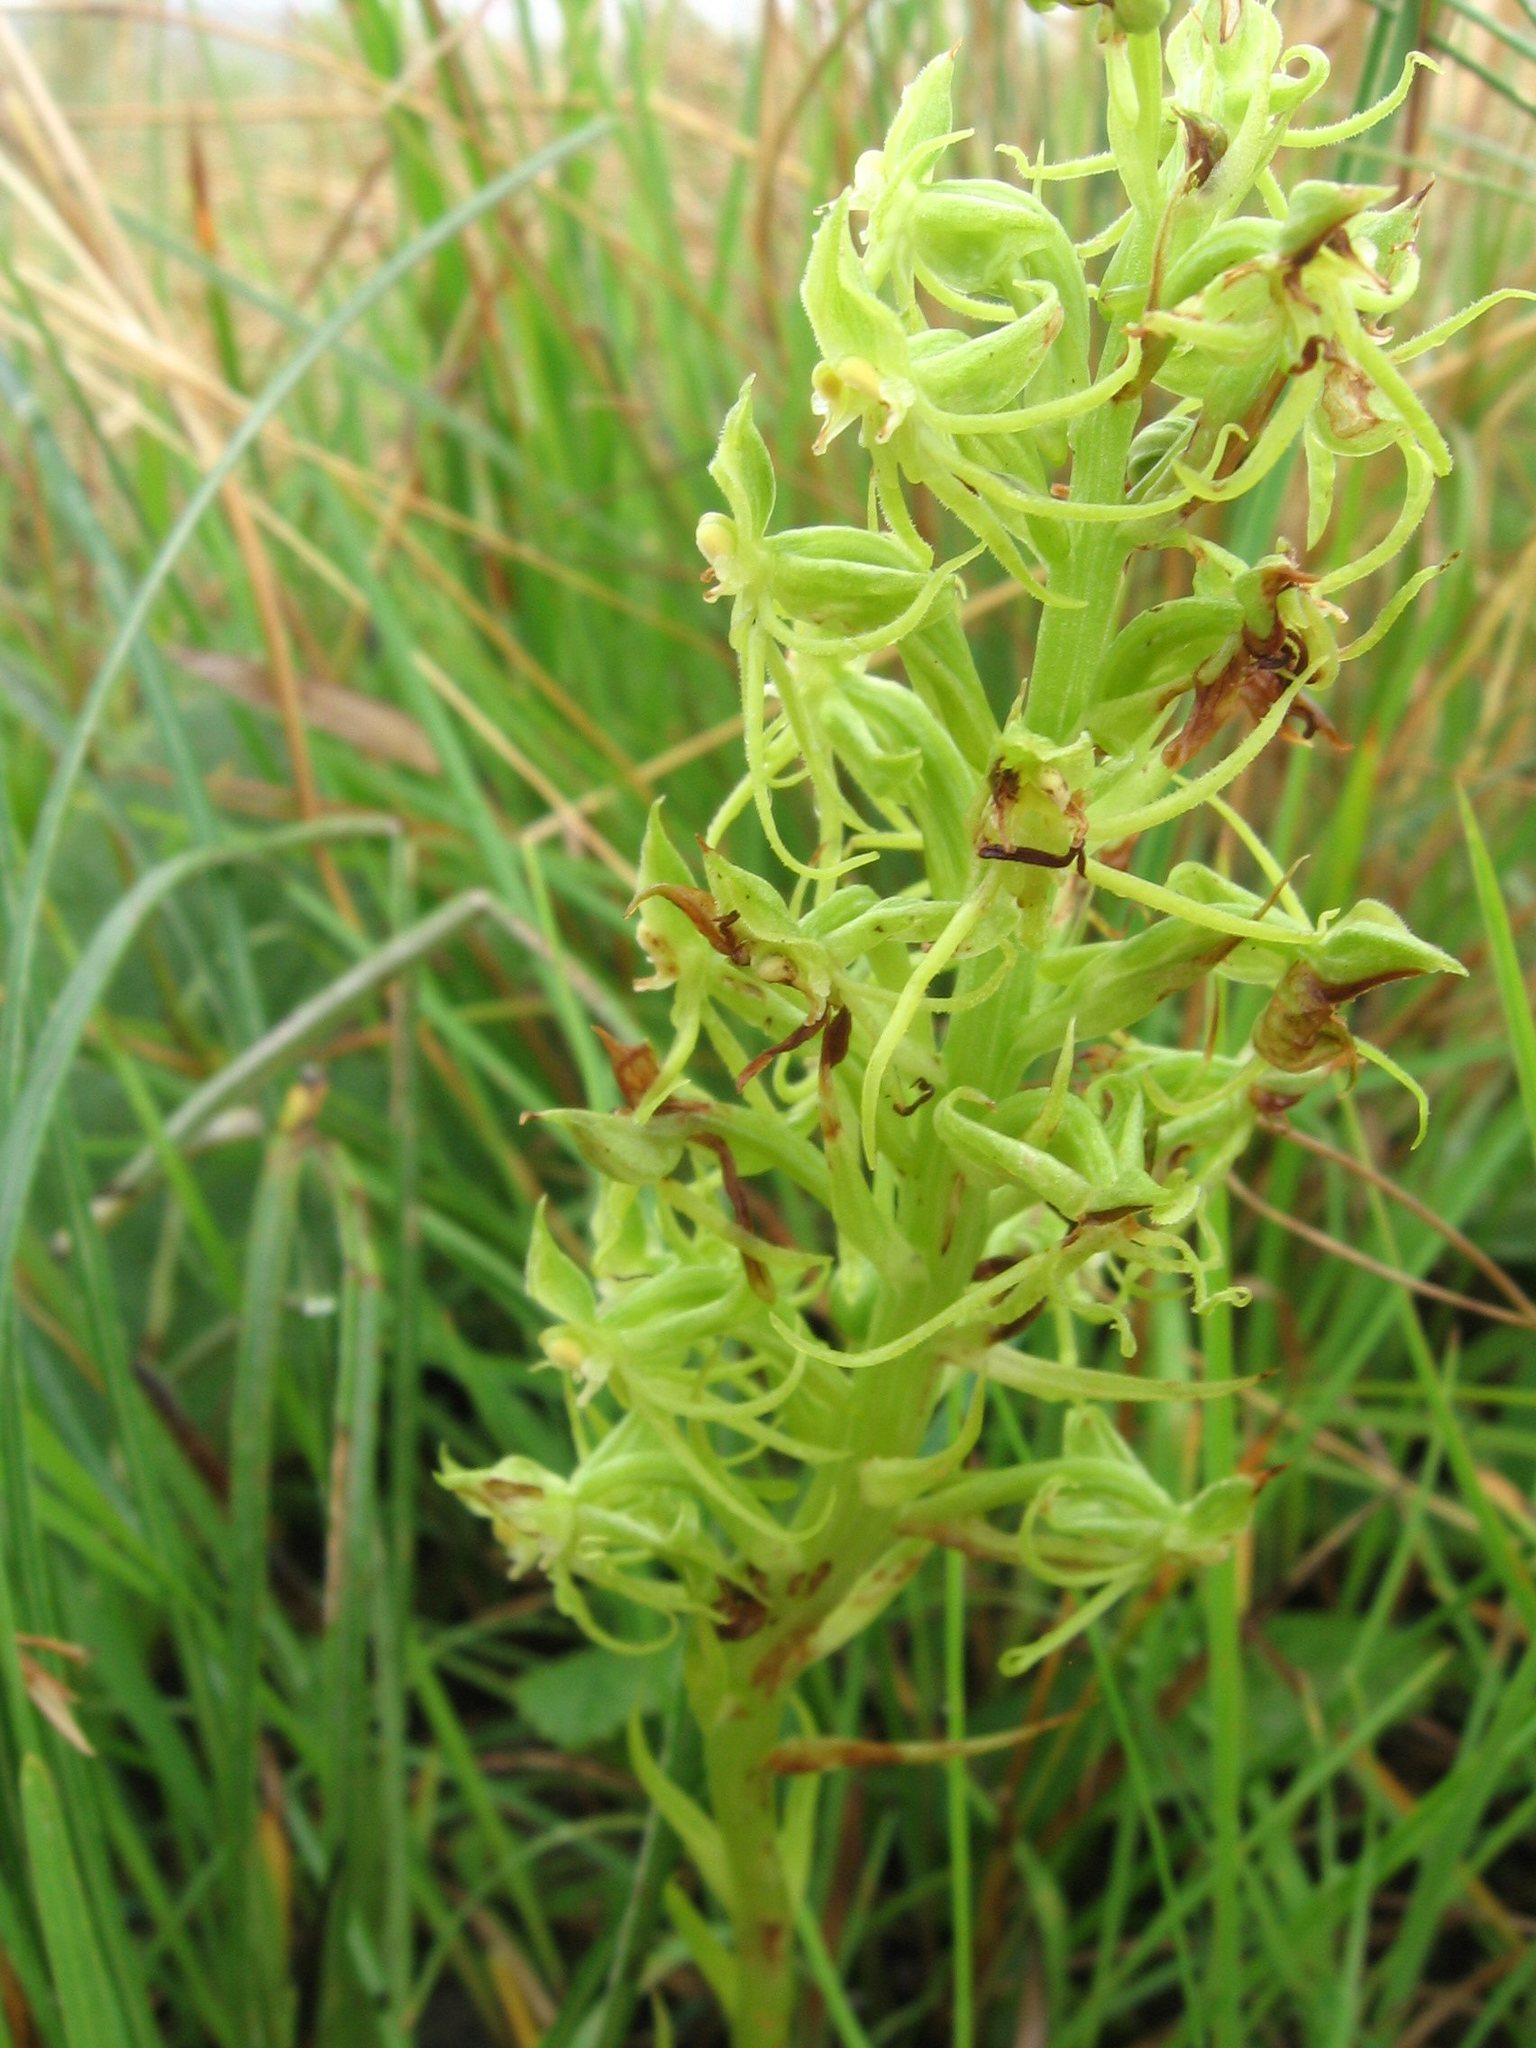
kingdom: Plantae
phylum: Tracheophyta
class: Liliopsida
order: Asparagales
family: Orchidaceae
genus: Habenaria
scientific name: Habenaria lithophila
